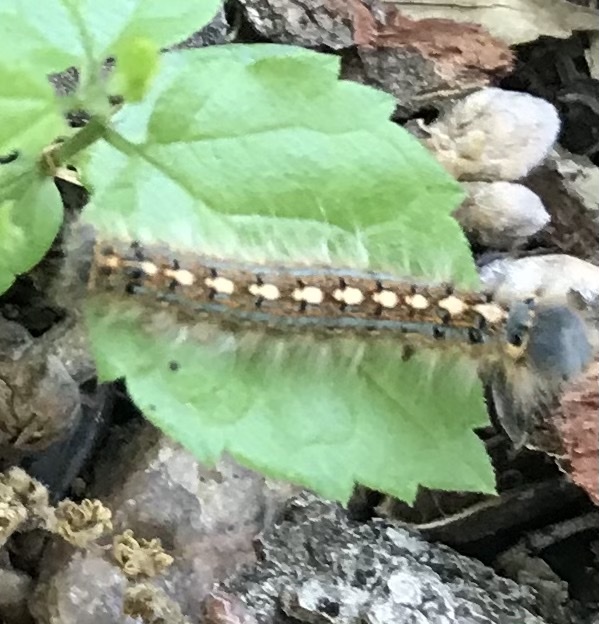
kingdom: Animalia
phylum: Arthropoda
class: Insecta
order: Lepidoptera
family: Lasiocampidae
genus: Malacosoma
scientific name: Malacosoma disstria
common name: Forest tent caterpillar
